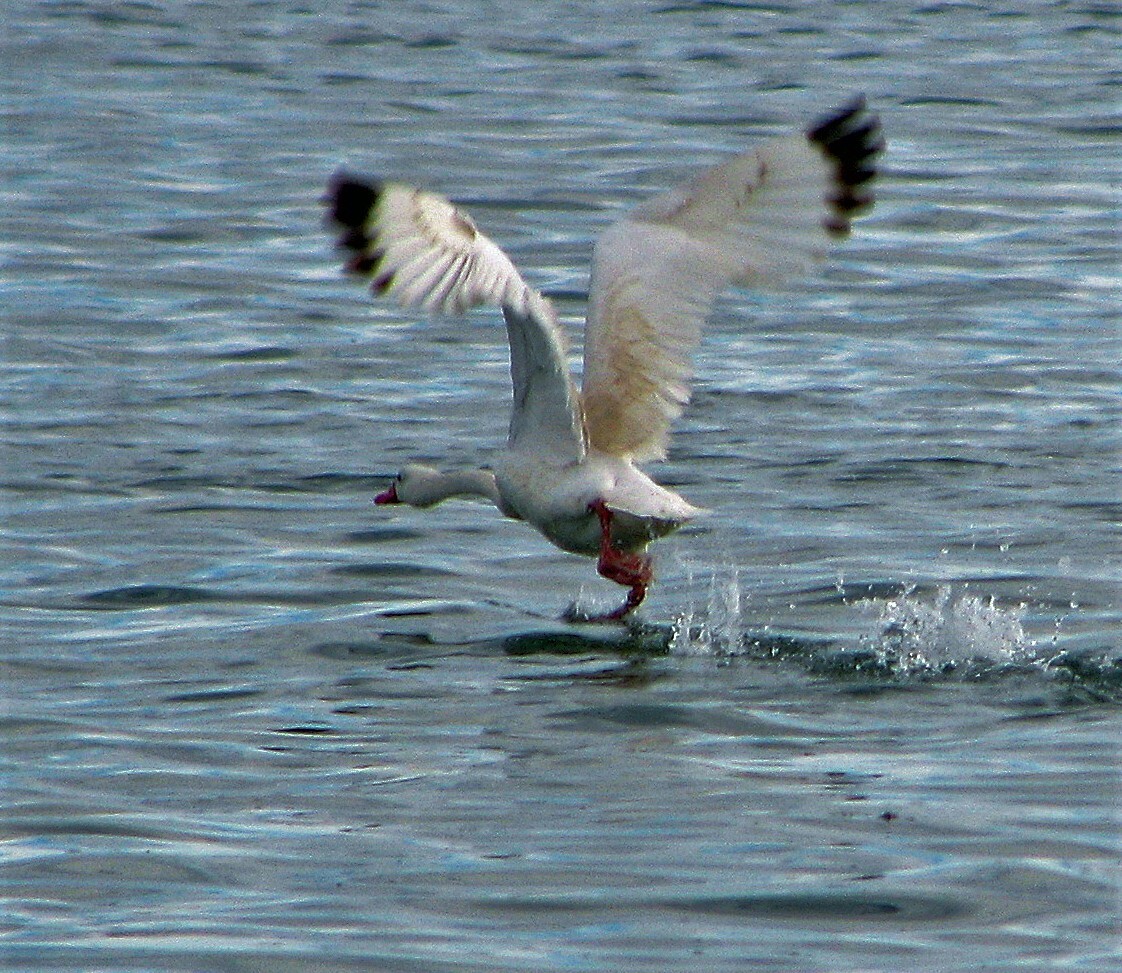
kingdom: Animalia
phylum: Chordata
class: Aves
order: Anseriformes
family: Anatidae
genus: Coscoroba
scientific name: Coscoroba coscoroba
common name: Coscoroba swan
